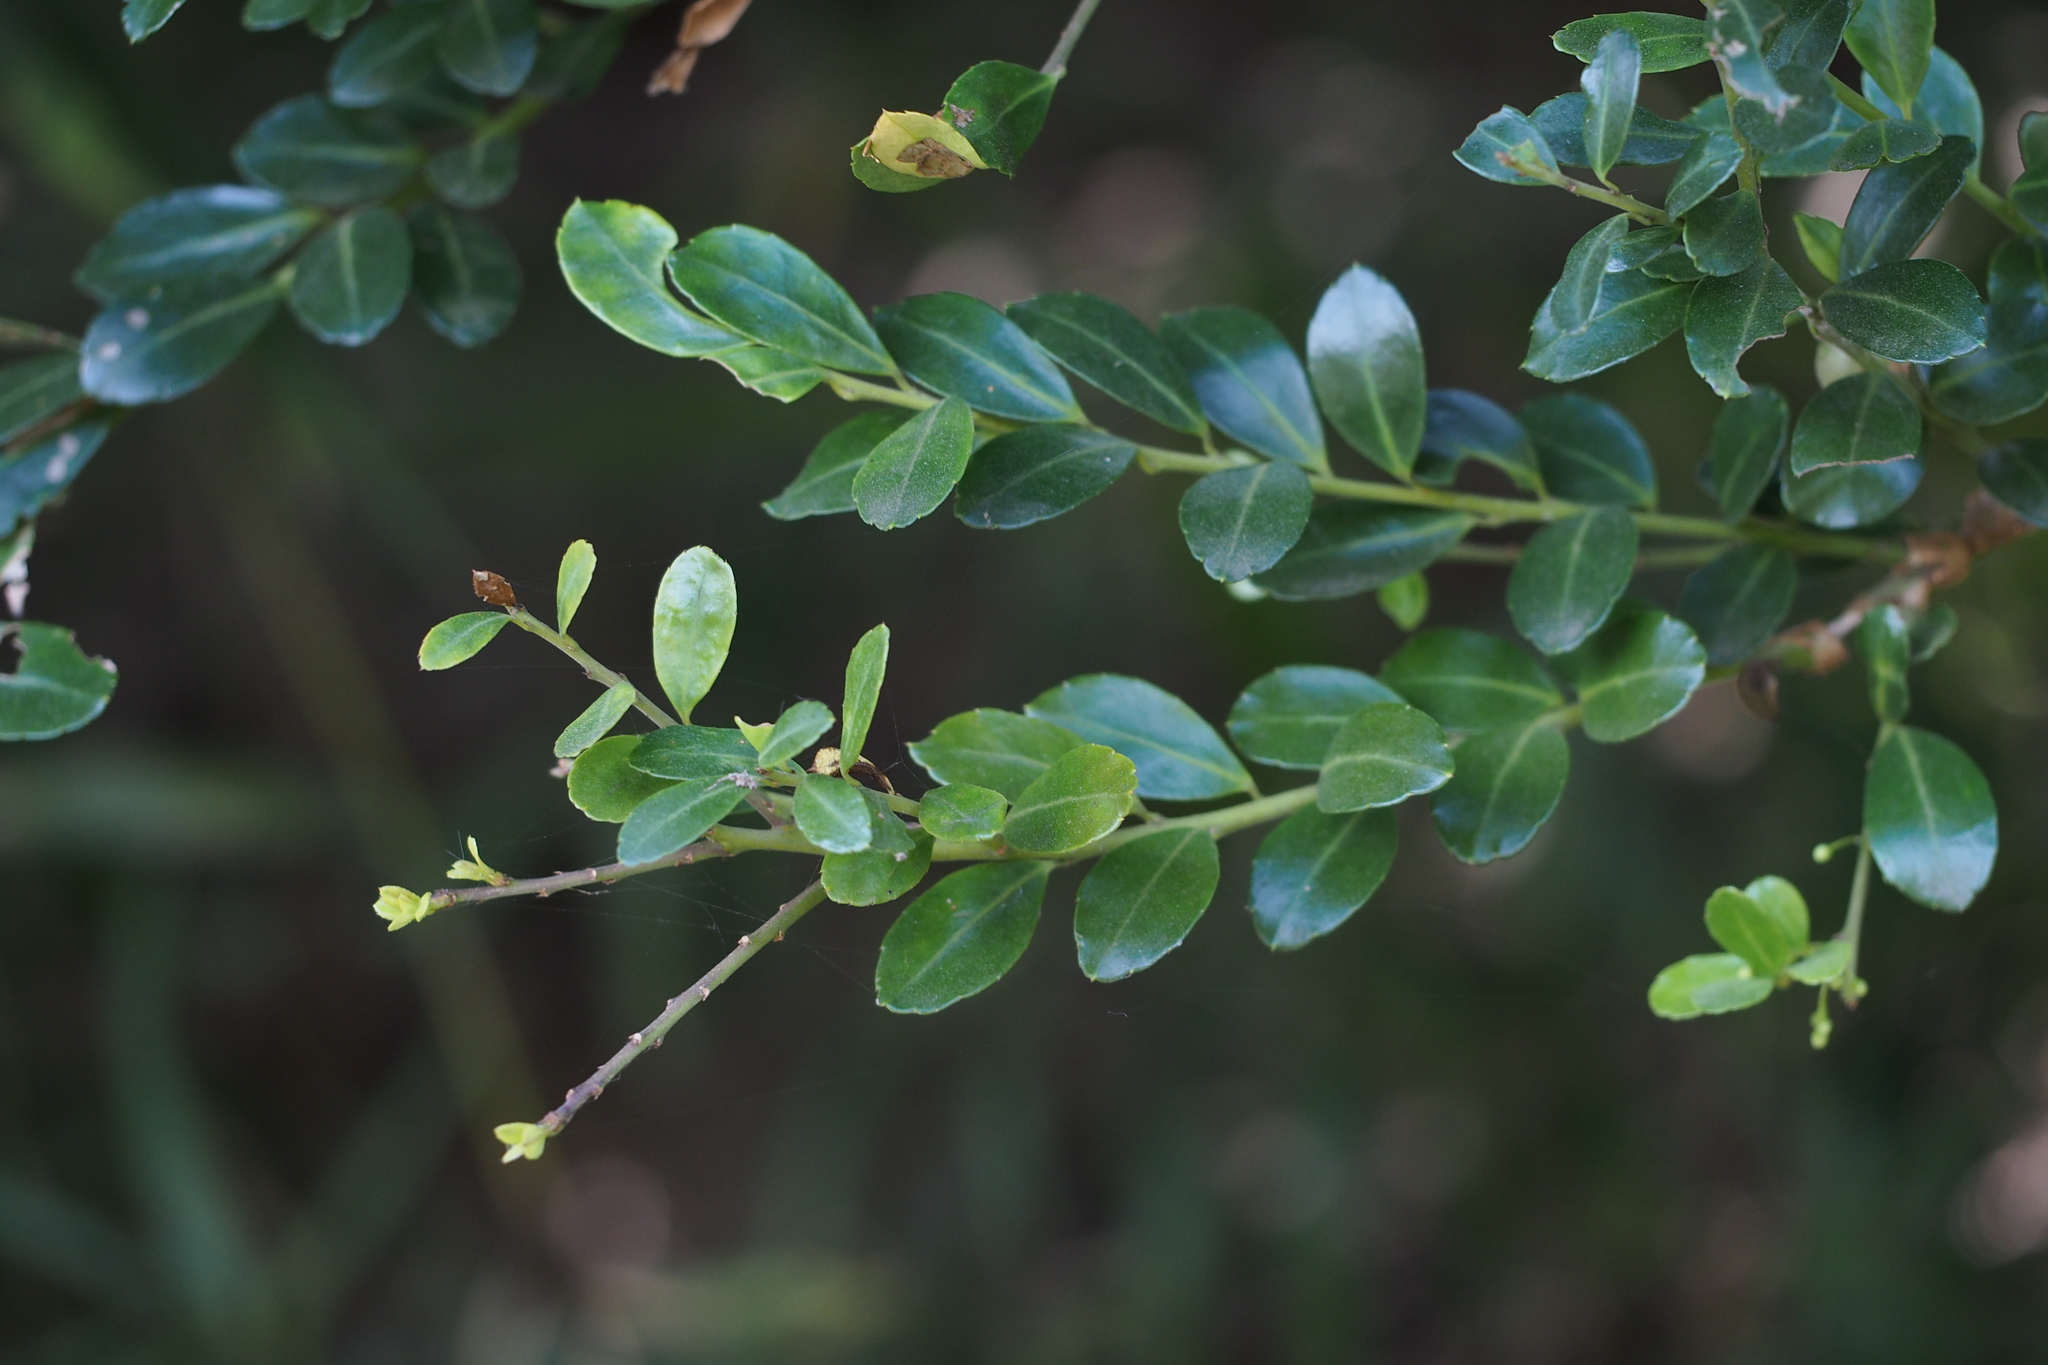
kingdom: Plantae
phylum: Tracheophyta
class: Magnoliopsida
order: Aquifoliales
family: Aquifoliaceae
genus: Ilex
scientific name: Ilex crenata
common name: Japanese holly
